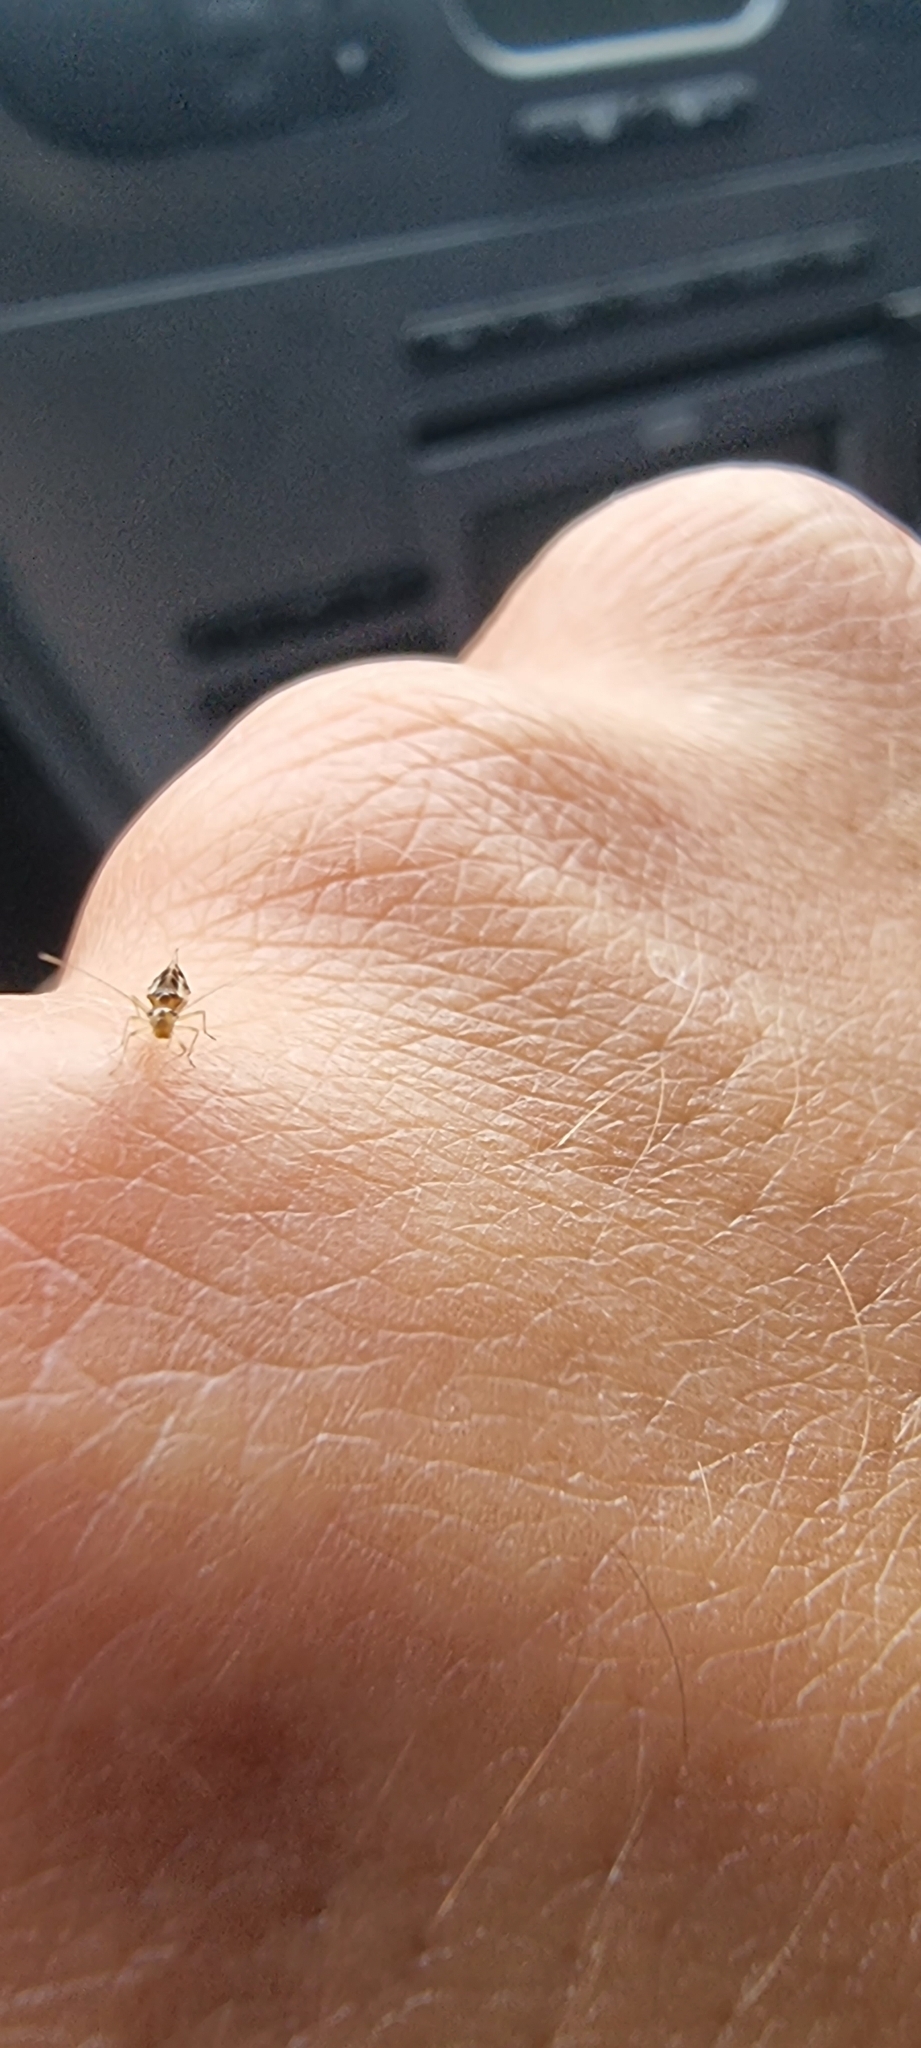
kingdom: Animalia
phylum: Arthropoda
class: Insecta
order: Psocodea
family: Stenopsocidae
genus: Graphopsocus
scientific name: Graphopsocus cruciatus
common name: Lizard bark louse
